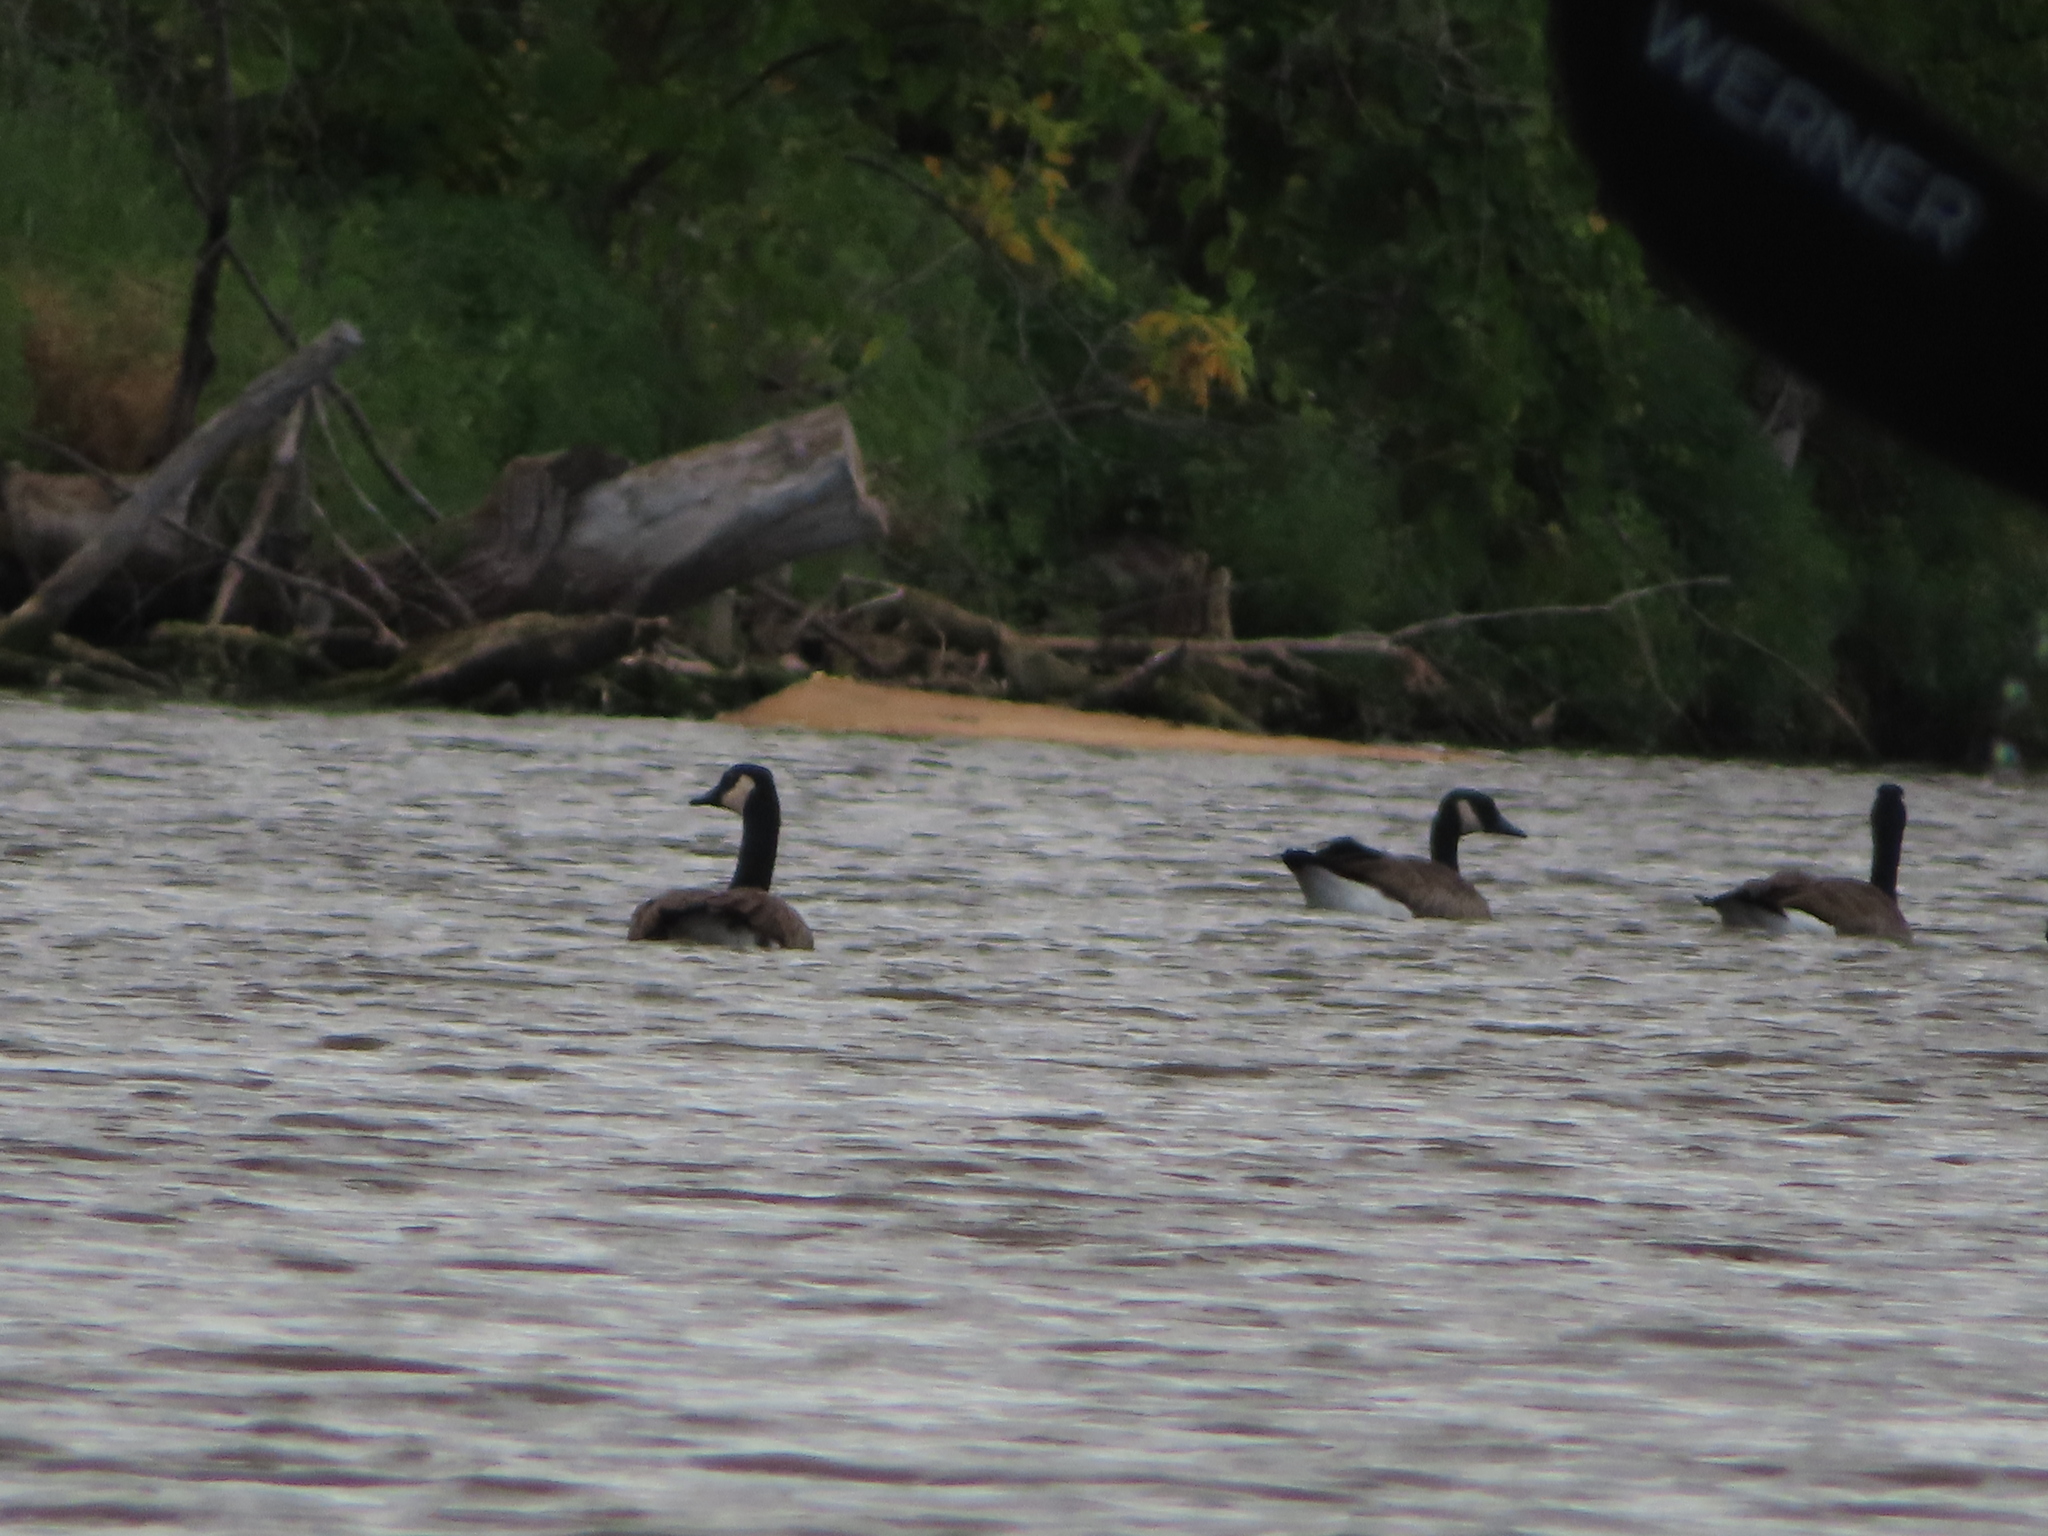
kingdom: Animalia
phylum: Chordata
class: Aves
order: Anseriformes
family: Anatidae
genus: Branta
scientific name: Branta canadensis
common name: Canada goose
